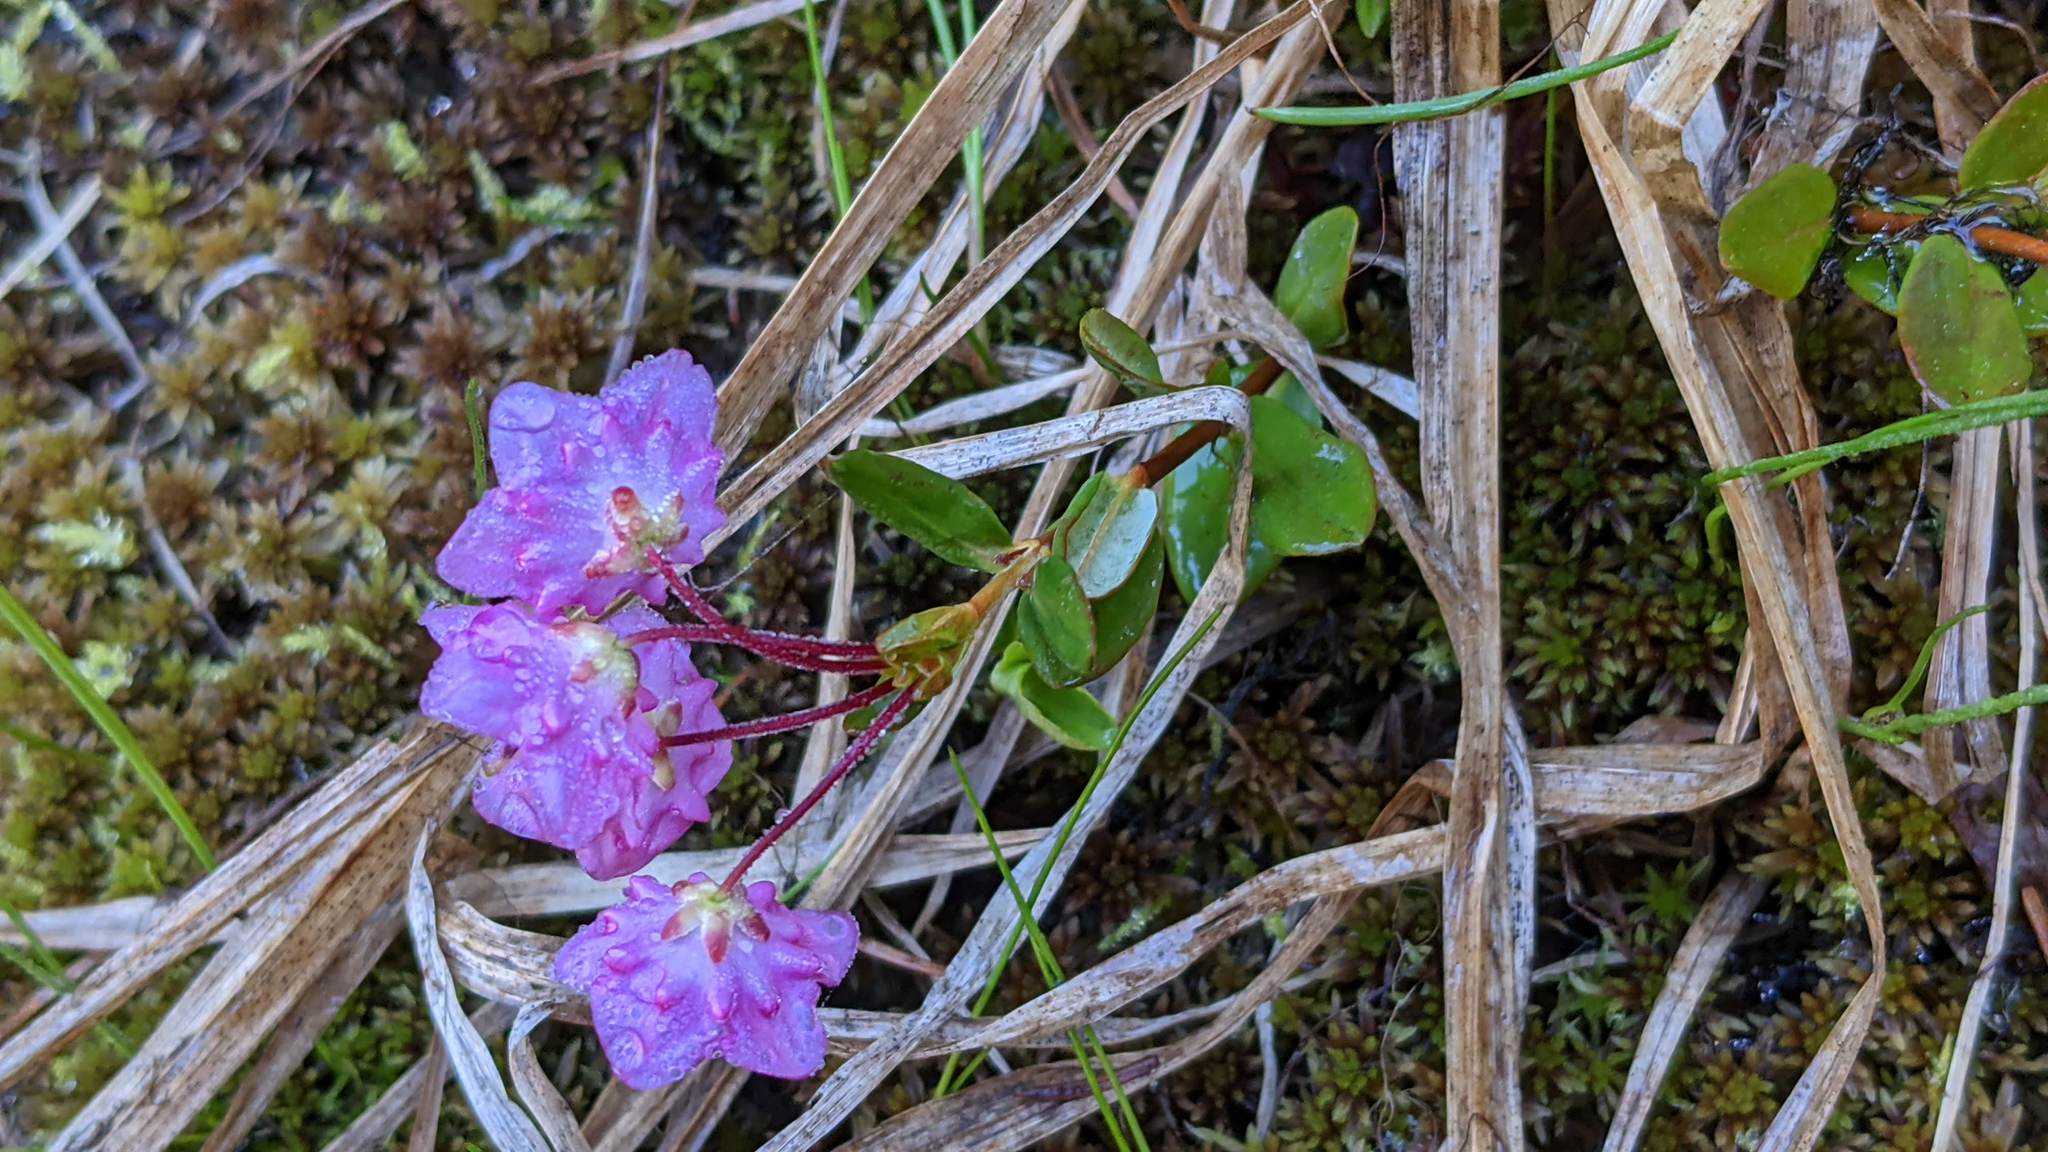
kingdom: Plantae
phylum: Tracheophyta
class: Magnoliopsida
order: Ericales
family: Ericaceae
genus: Kalmia
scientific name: Kalmia microphylla
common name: Alpine bog laurel
